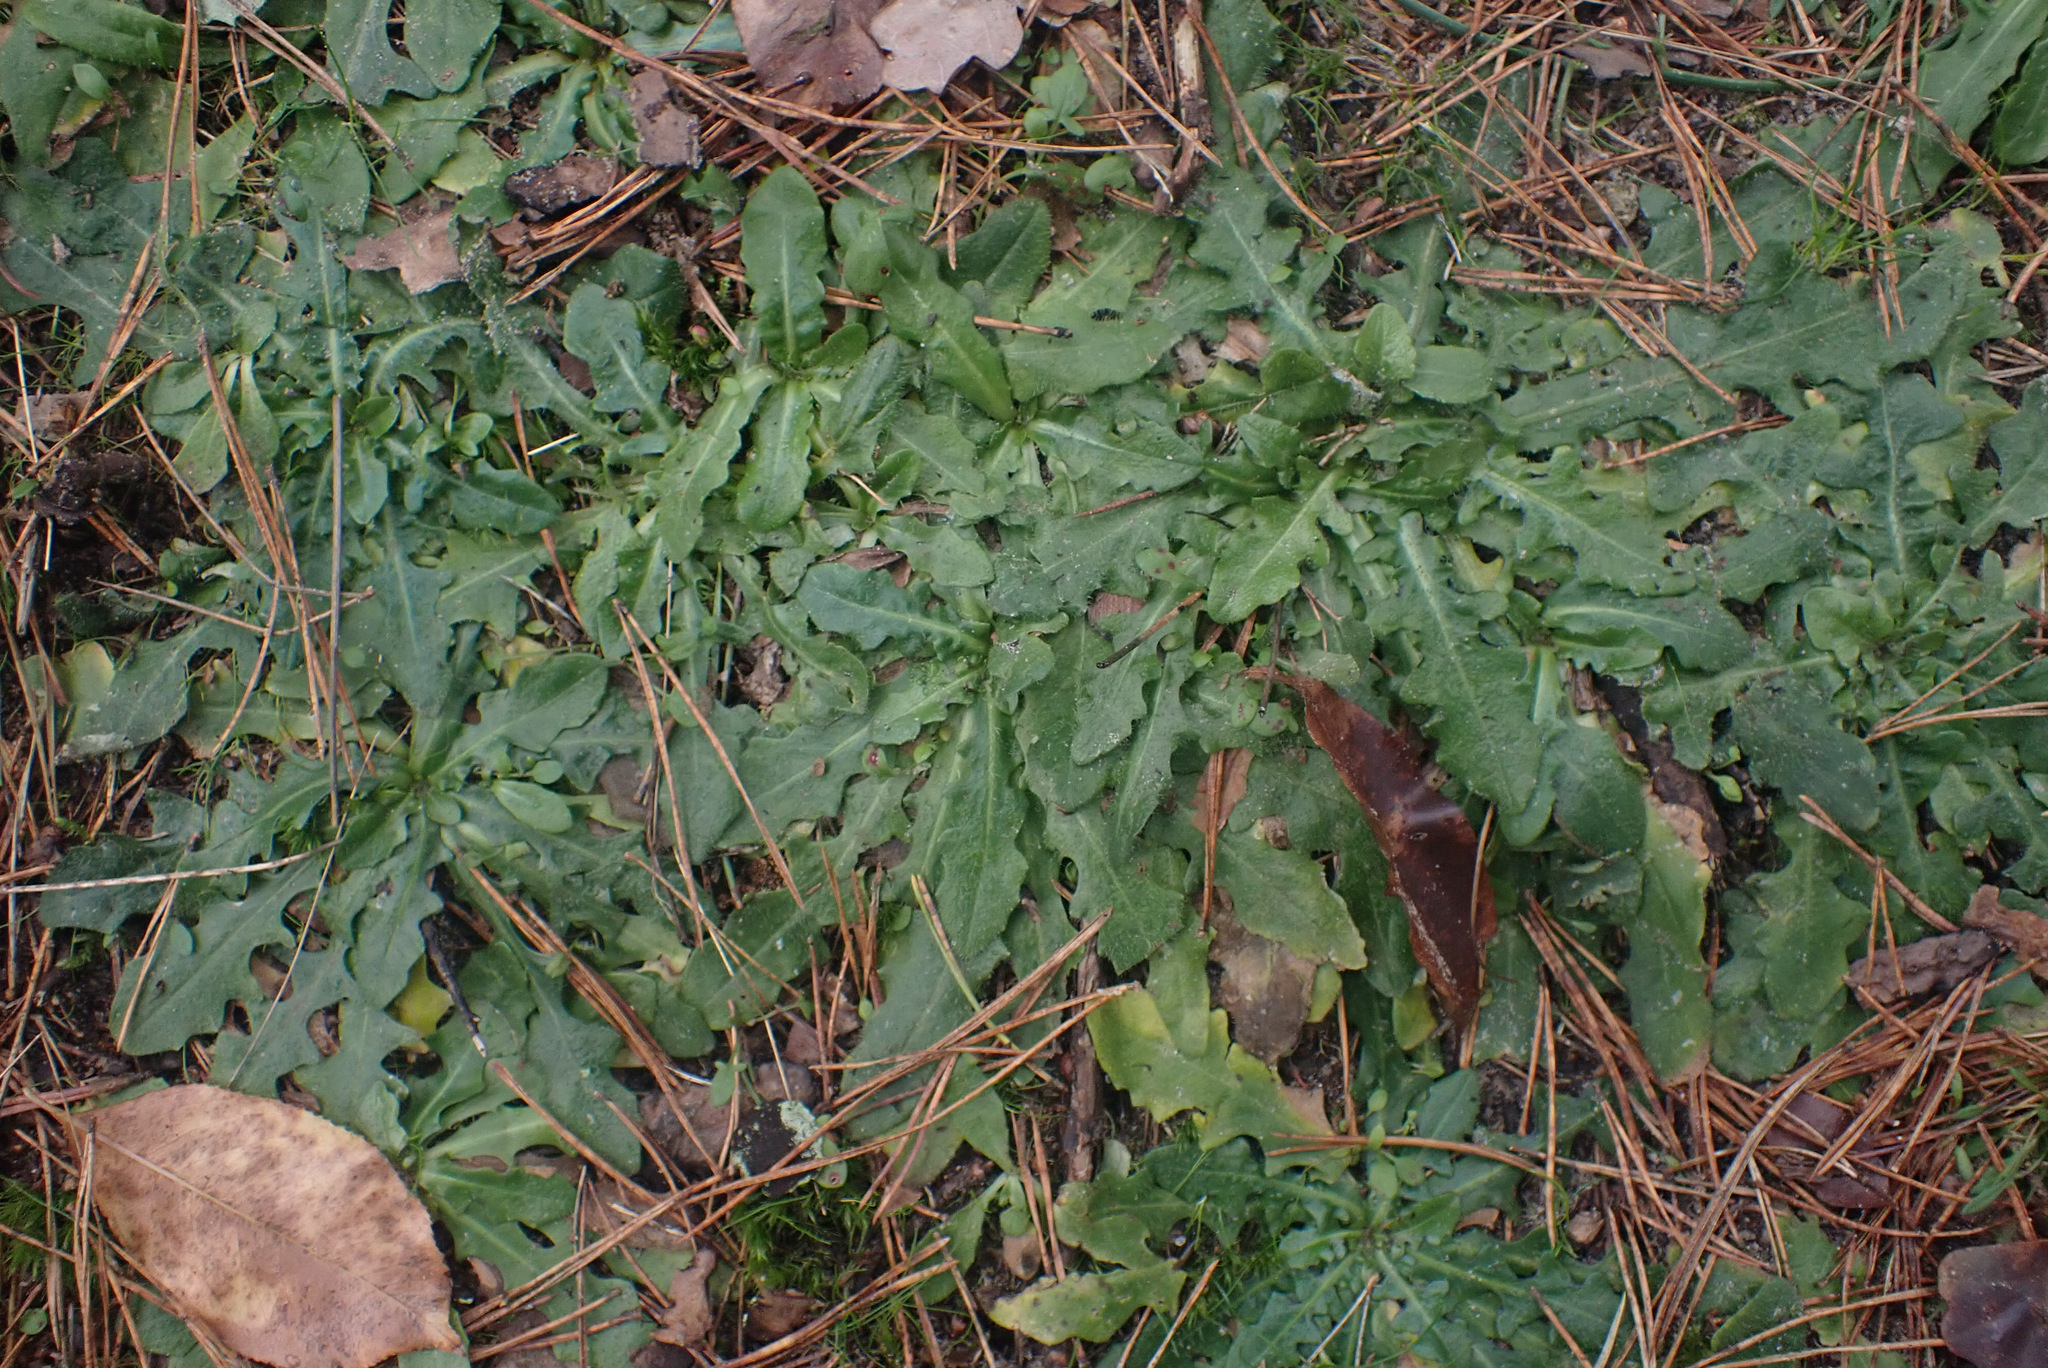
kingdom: Plantae
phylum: Tracheophyta
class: Magnoliopsida
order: Asterales
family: Asteraceae
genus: Hypochaeris
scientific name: Hypochaeris radicata
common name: Flatweed
